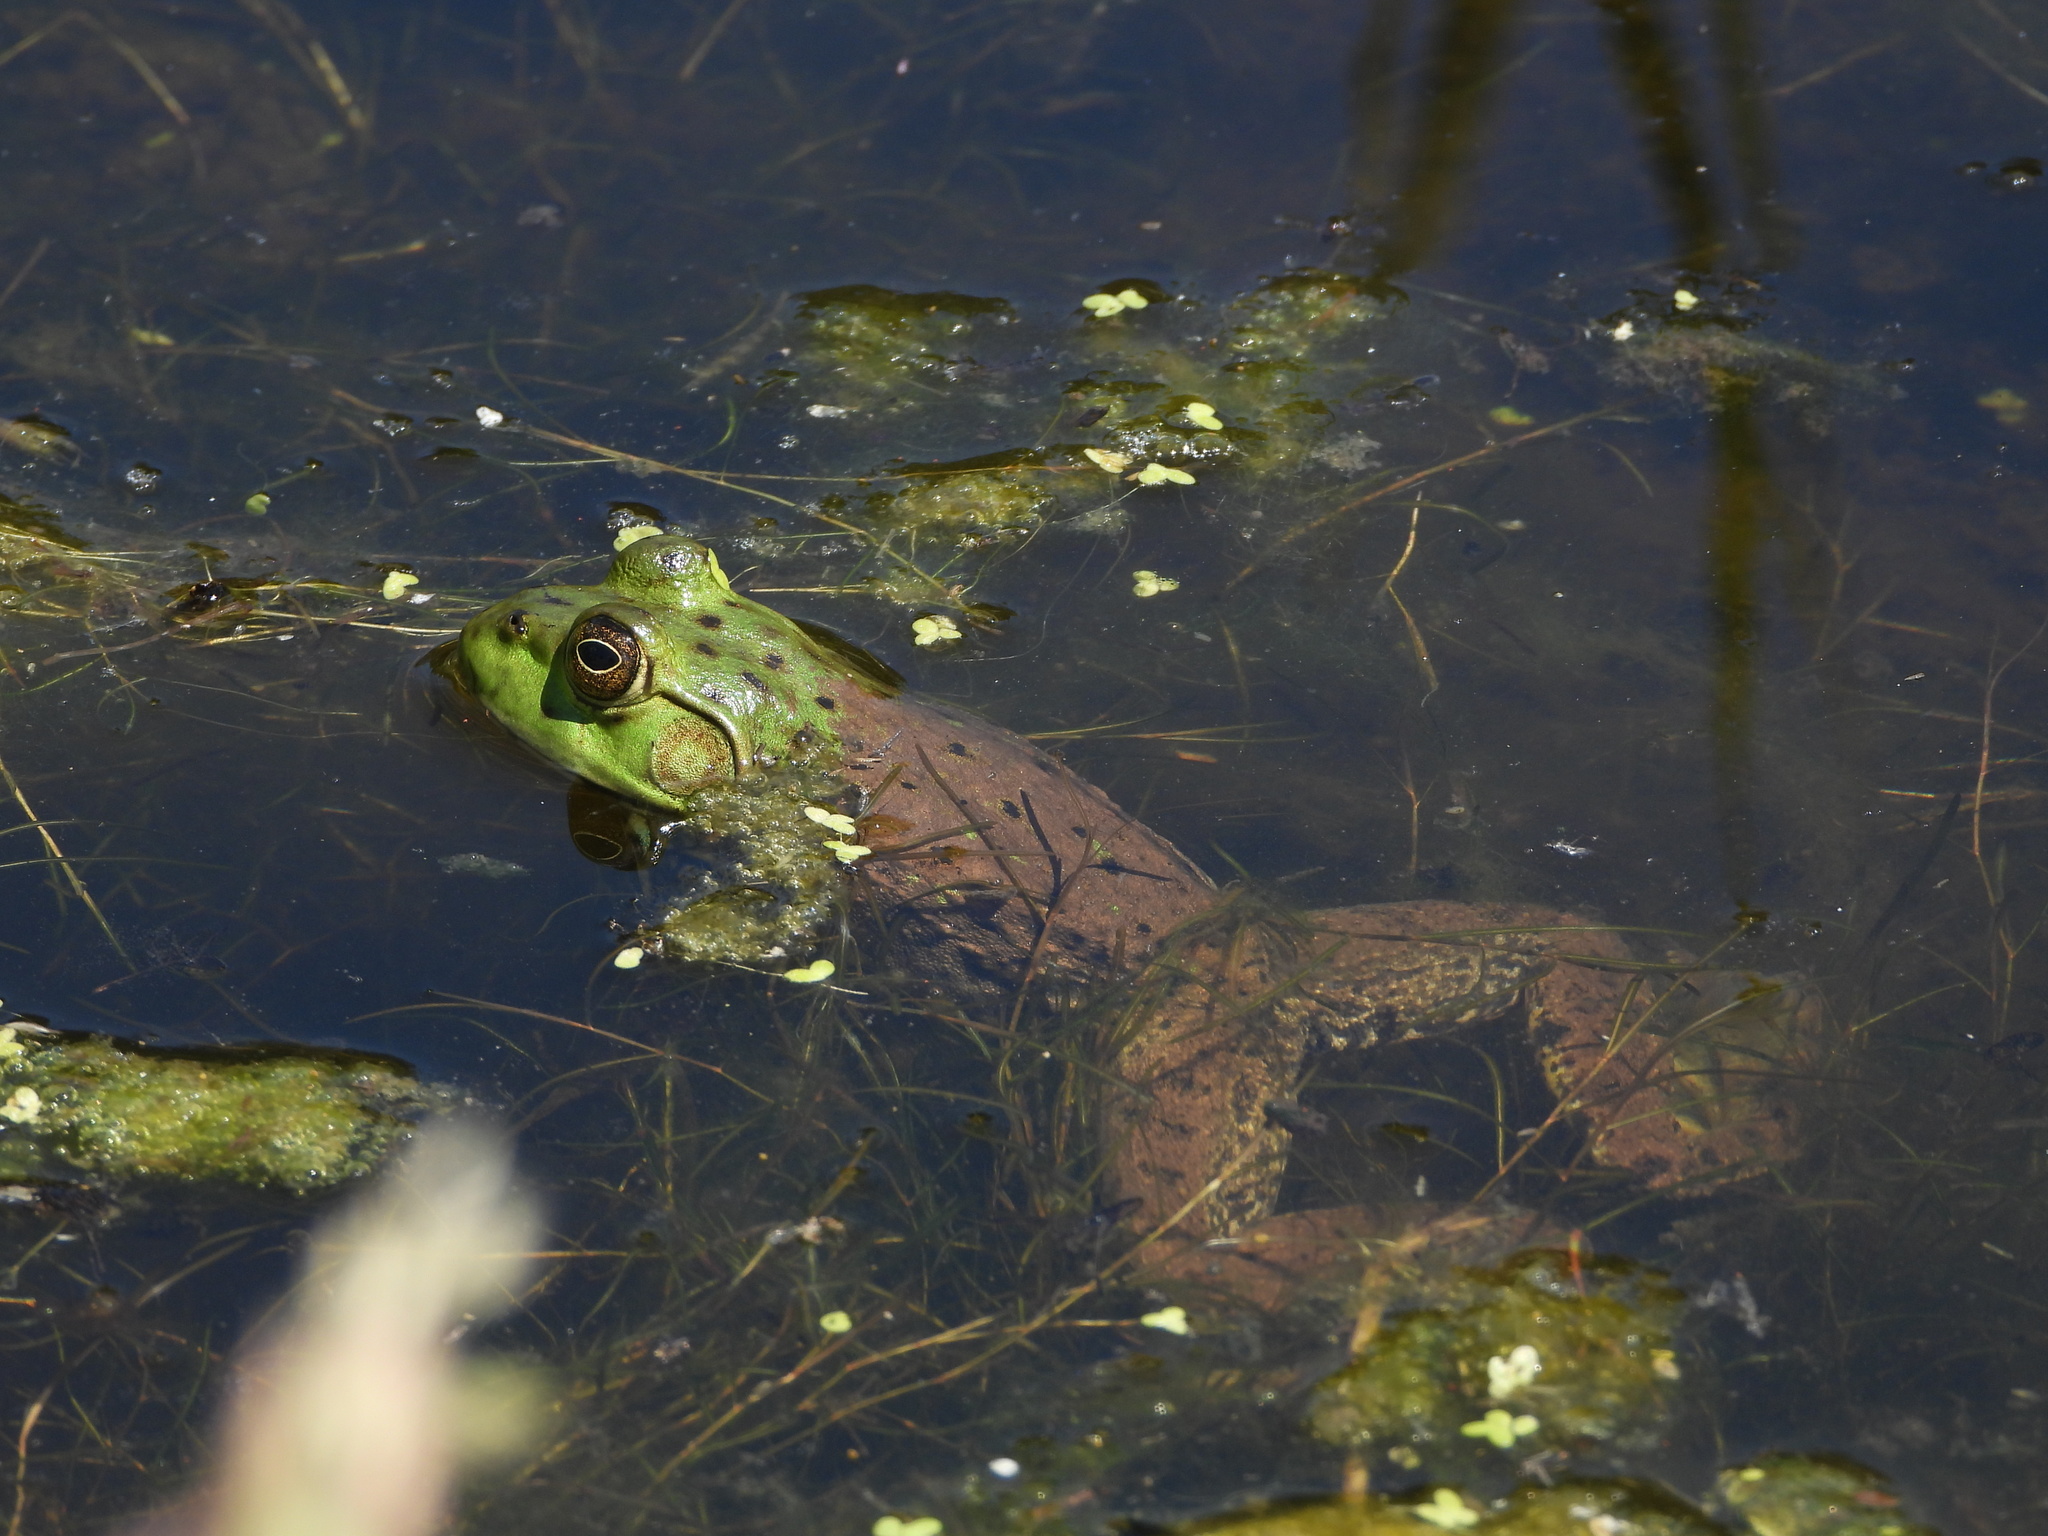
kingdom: Animalia
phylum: Chordata
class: Amphibia
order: Anura
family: Ranidae
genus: Lithobates
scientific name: Lithobates catesbeianus
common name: American bullfrog
